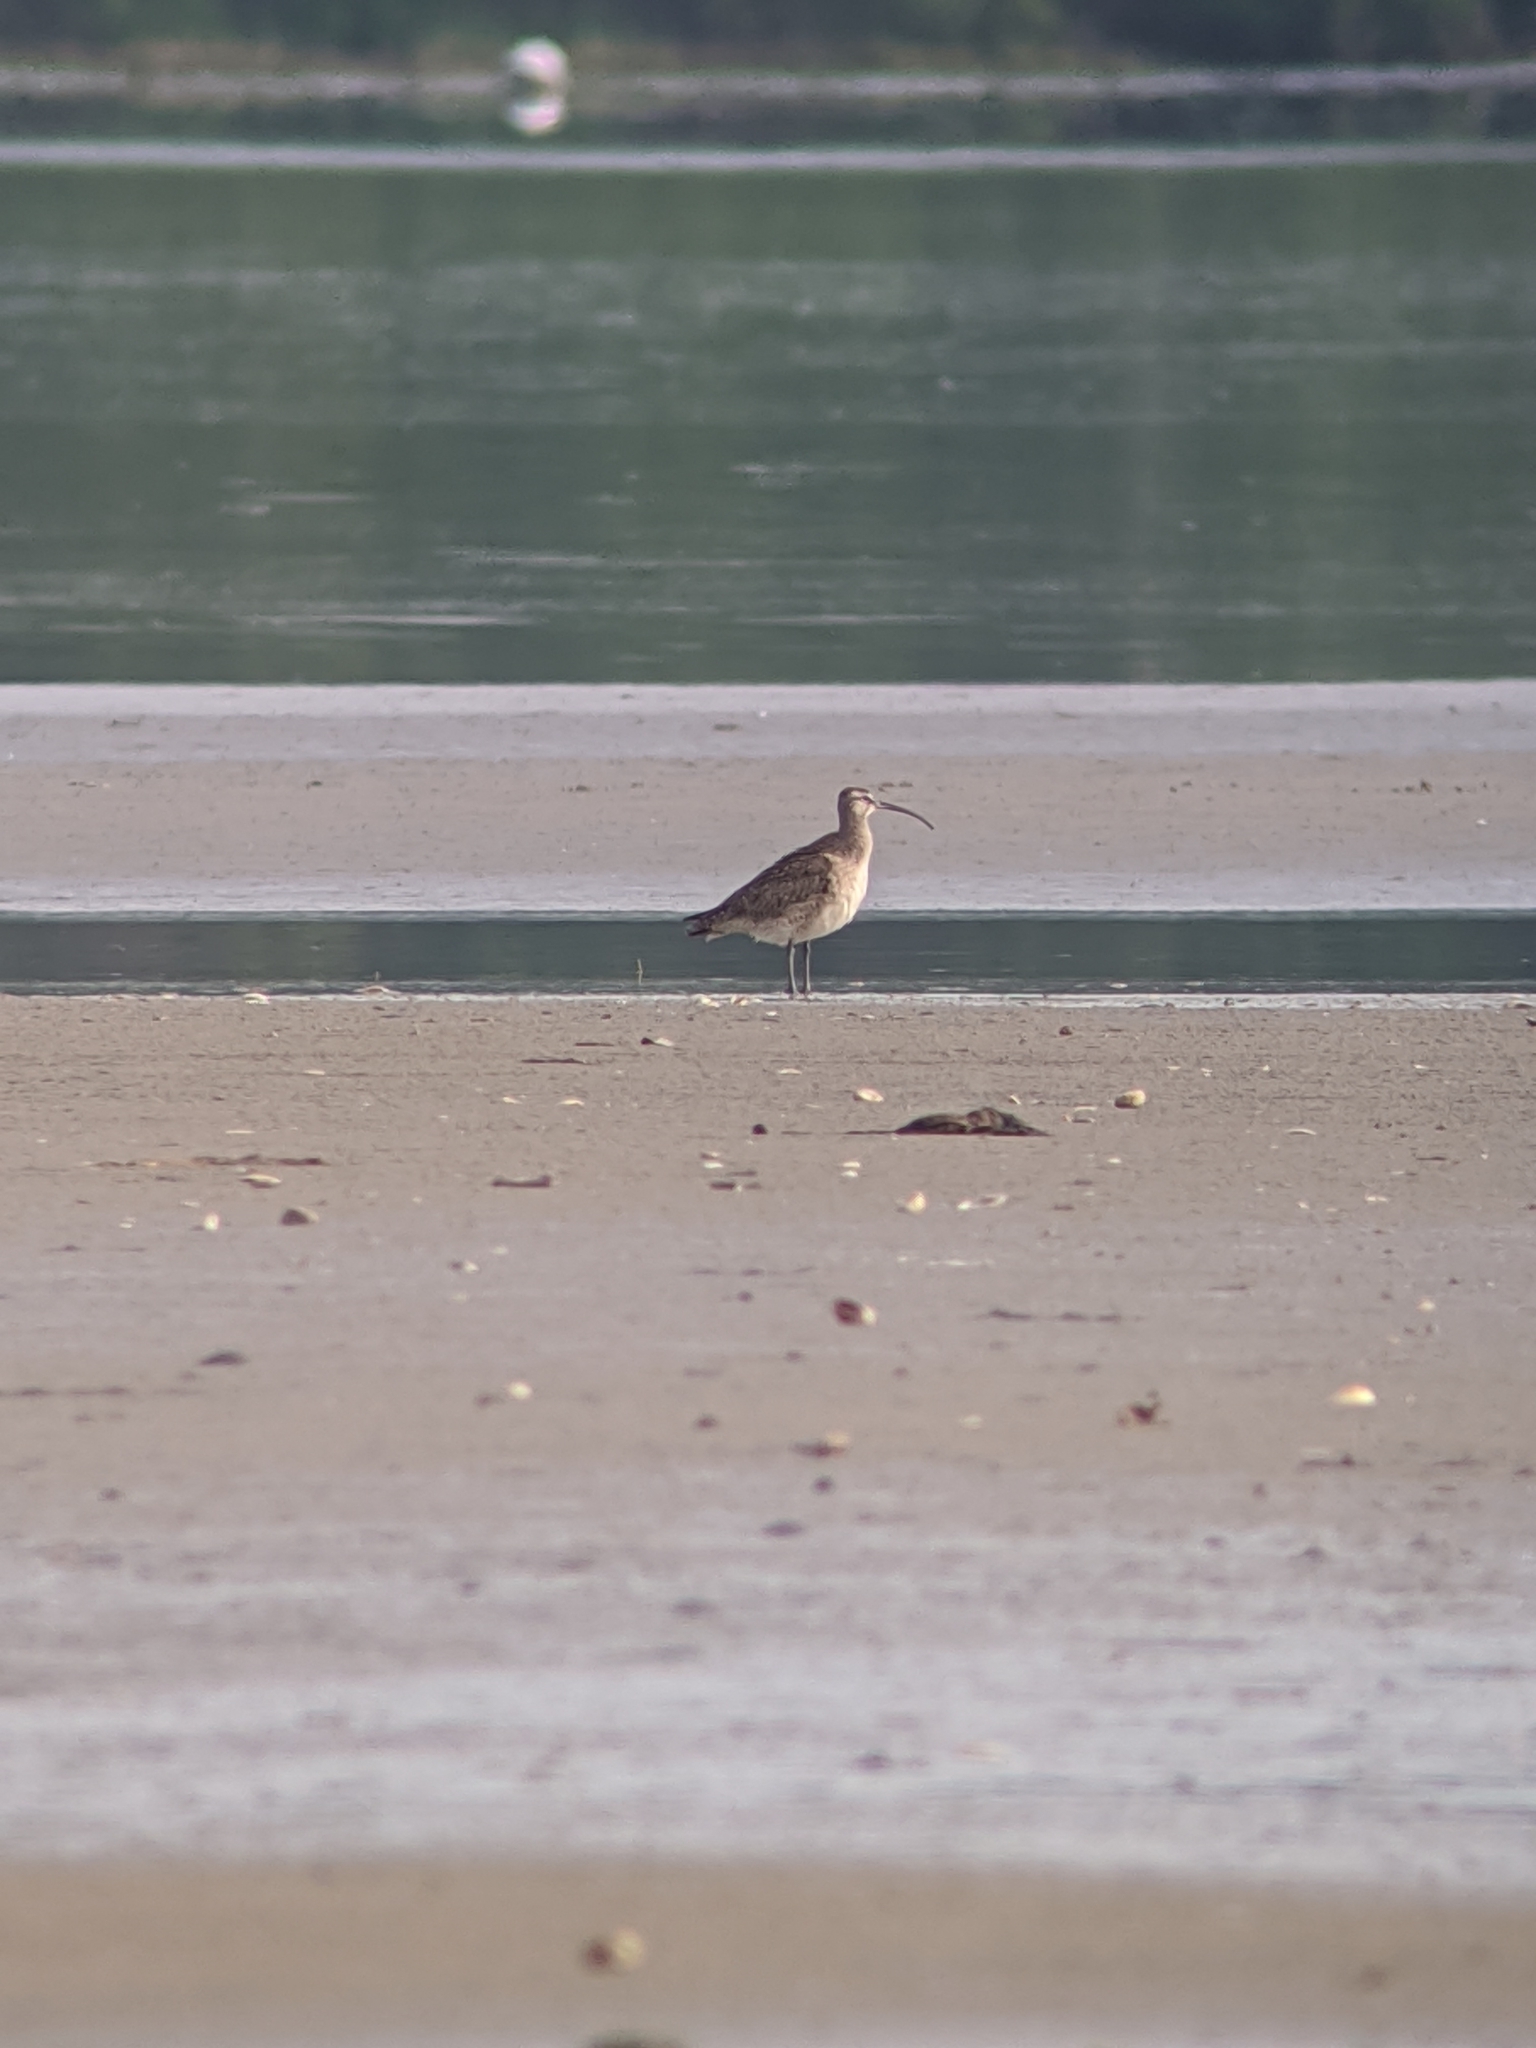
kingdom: Animalia
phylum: Chordata
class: Aves
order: Charadriiformes
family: Scolopacidae
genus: Numenius
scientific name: Numenius phaeopus
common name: Whimbrel
